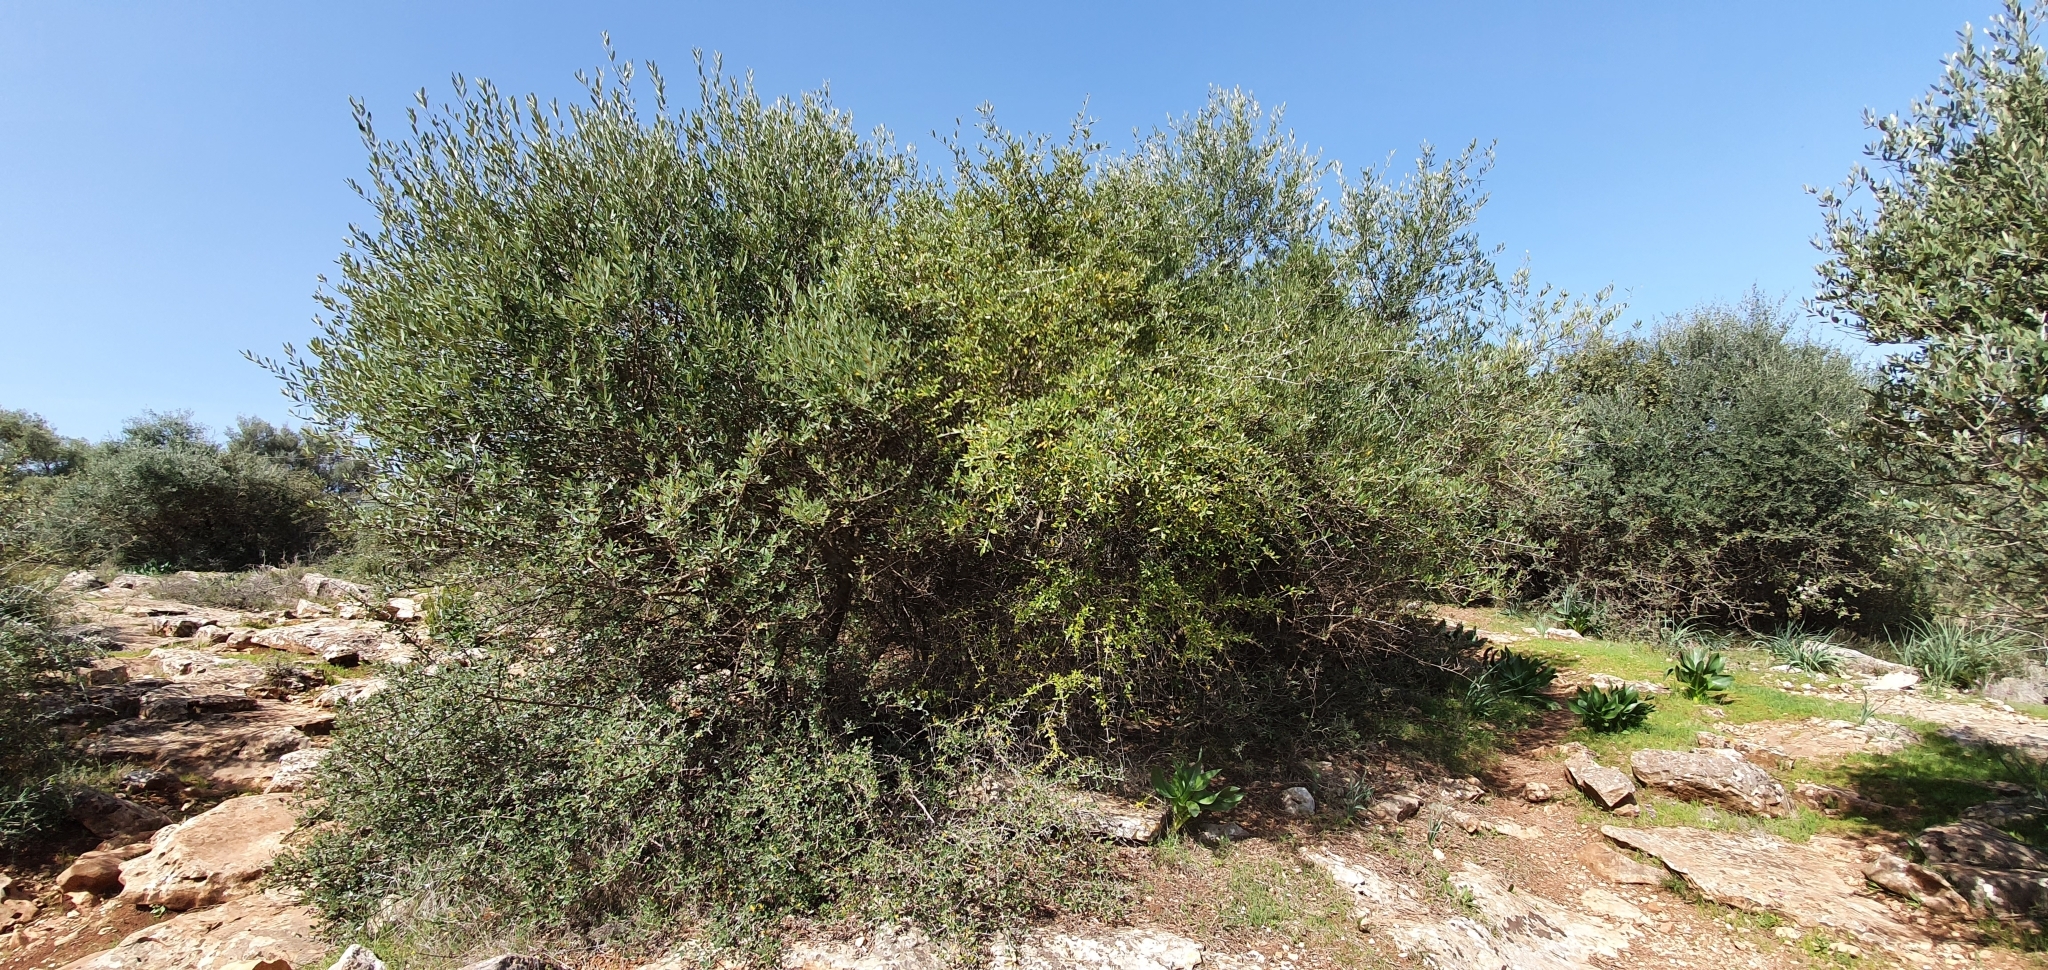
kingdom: Plantae
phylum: Tracheophyta
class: Magnoliopsida
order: Lamiales
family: Oleaceae
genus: Olea
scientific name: Olea europaea
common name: Olive
